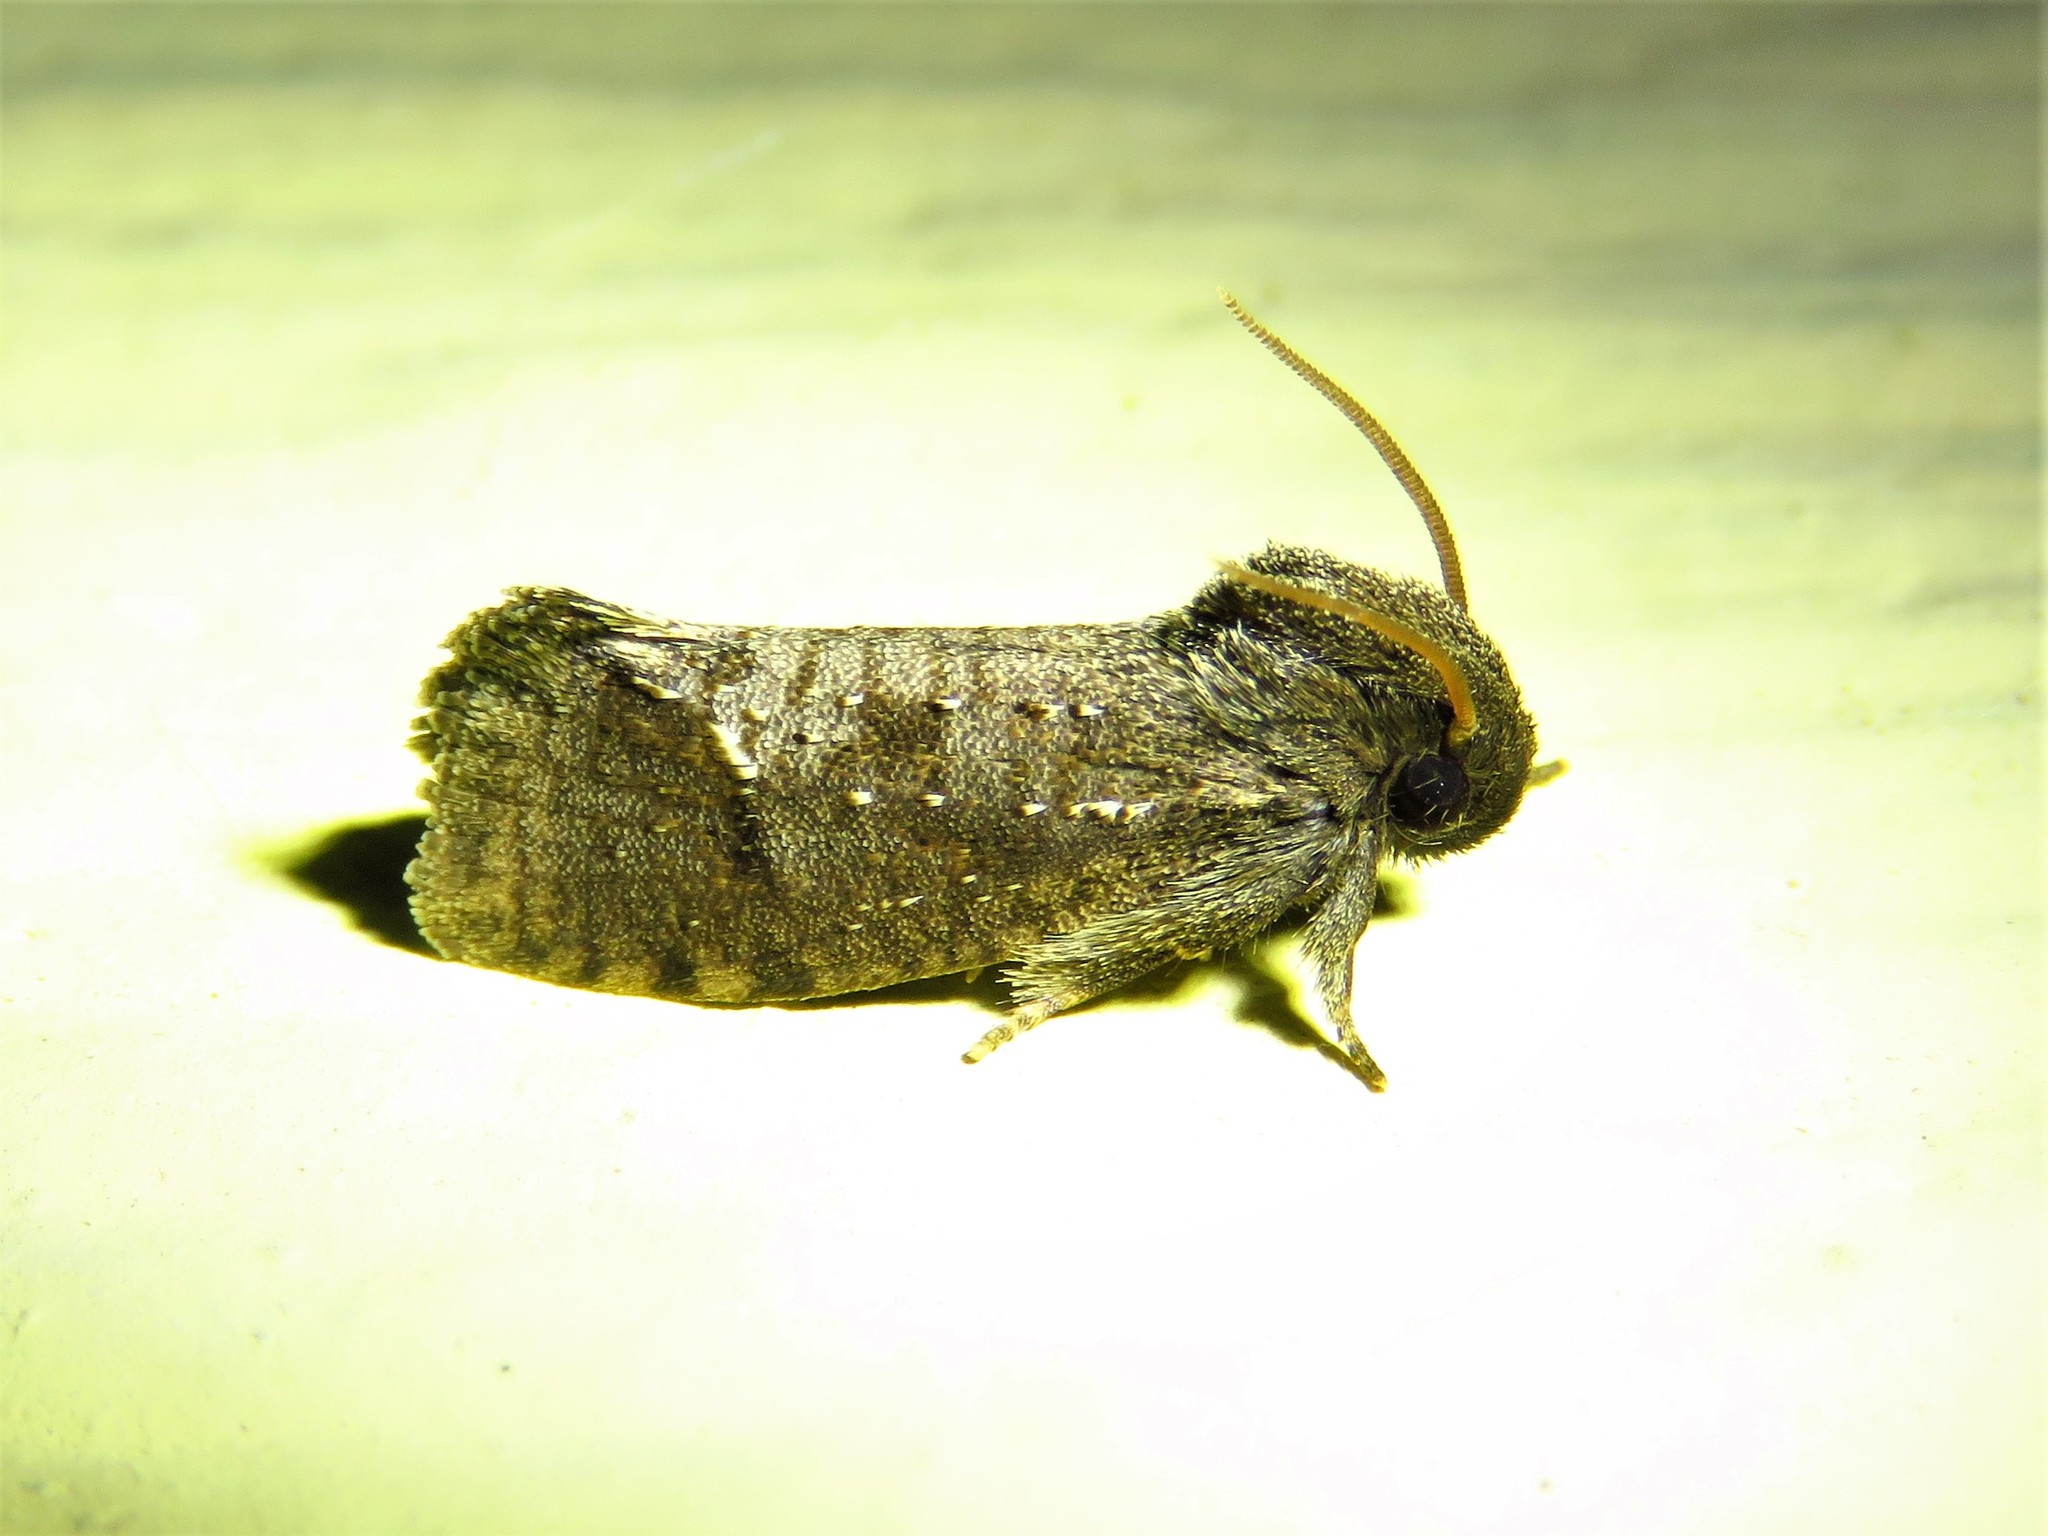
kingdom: Animalia
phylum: Arthropoda
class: Insecta
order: Lepidoptera
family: Tineidae
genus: Acrolophus
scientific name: Acrolophus texanella
